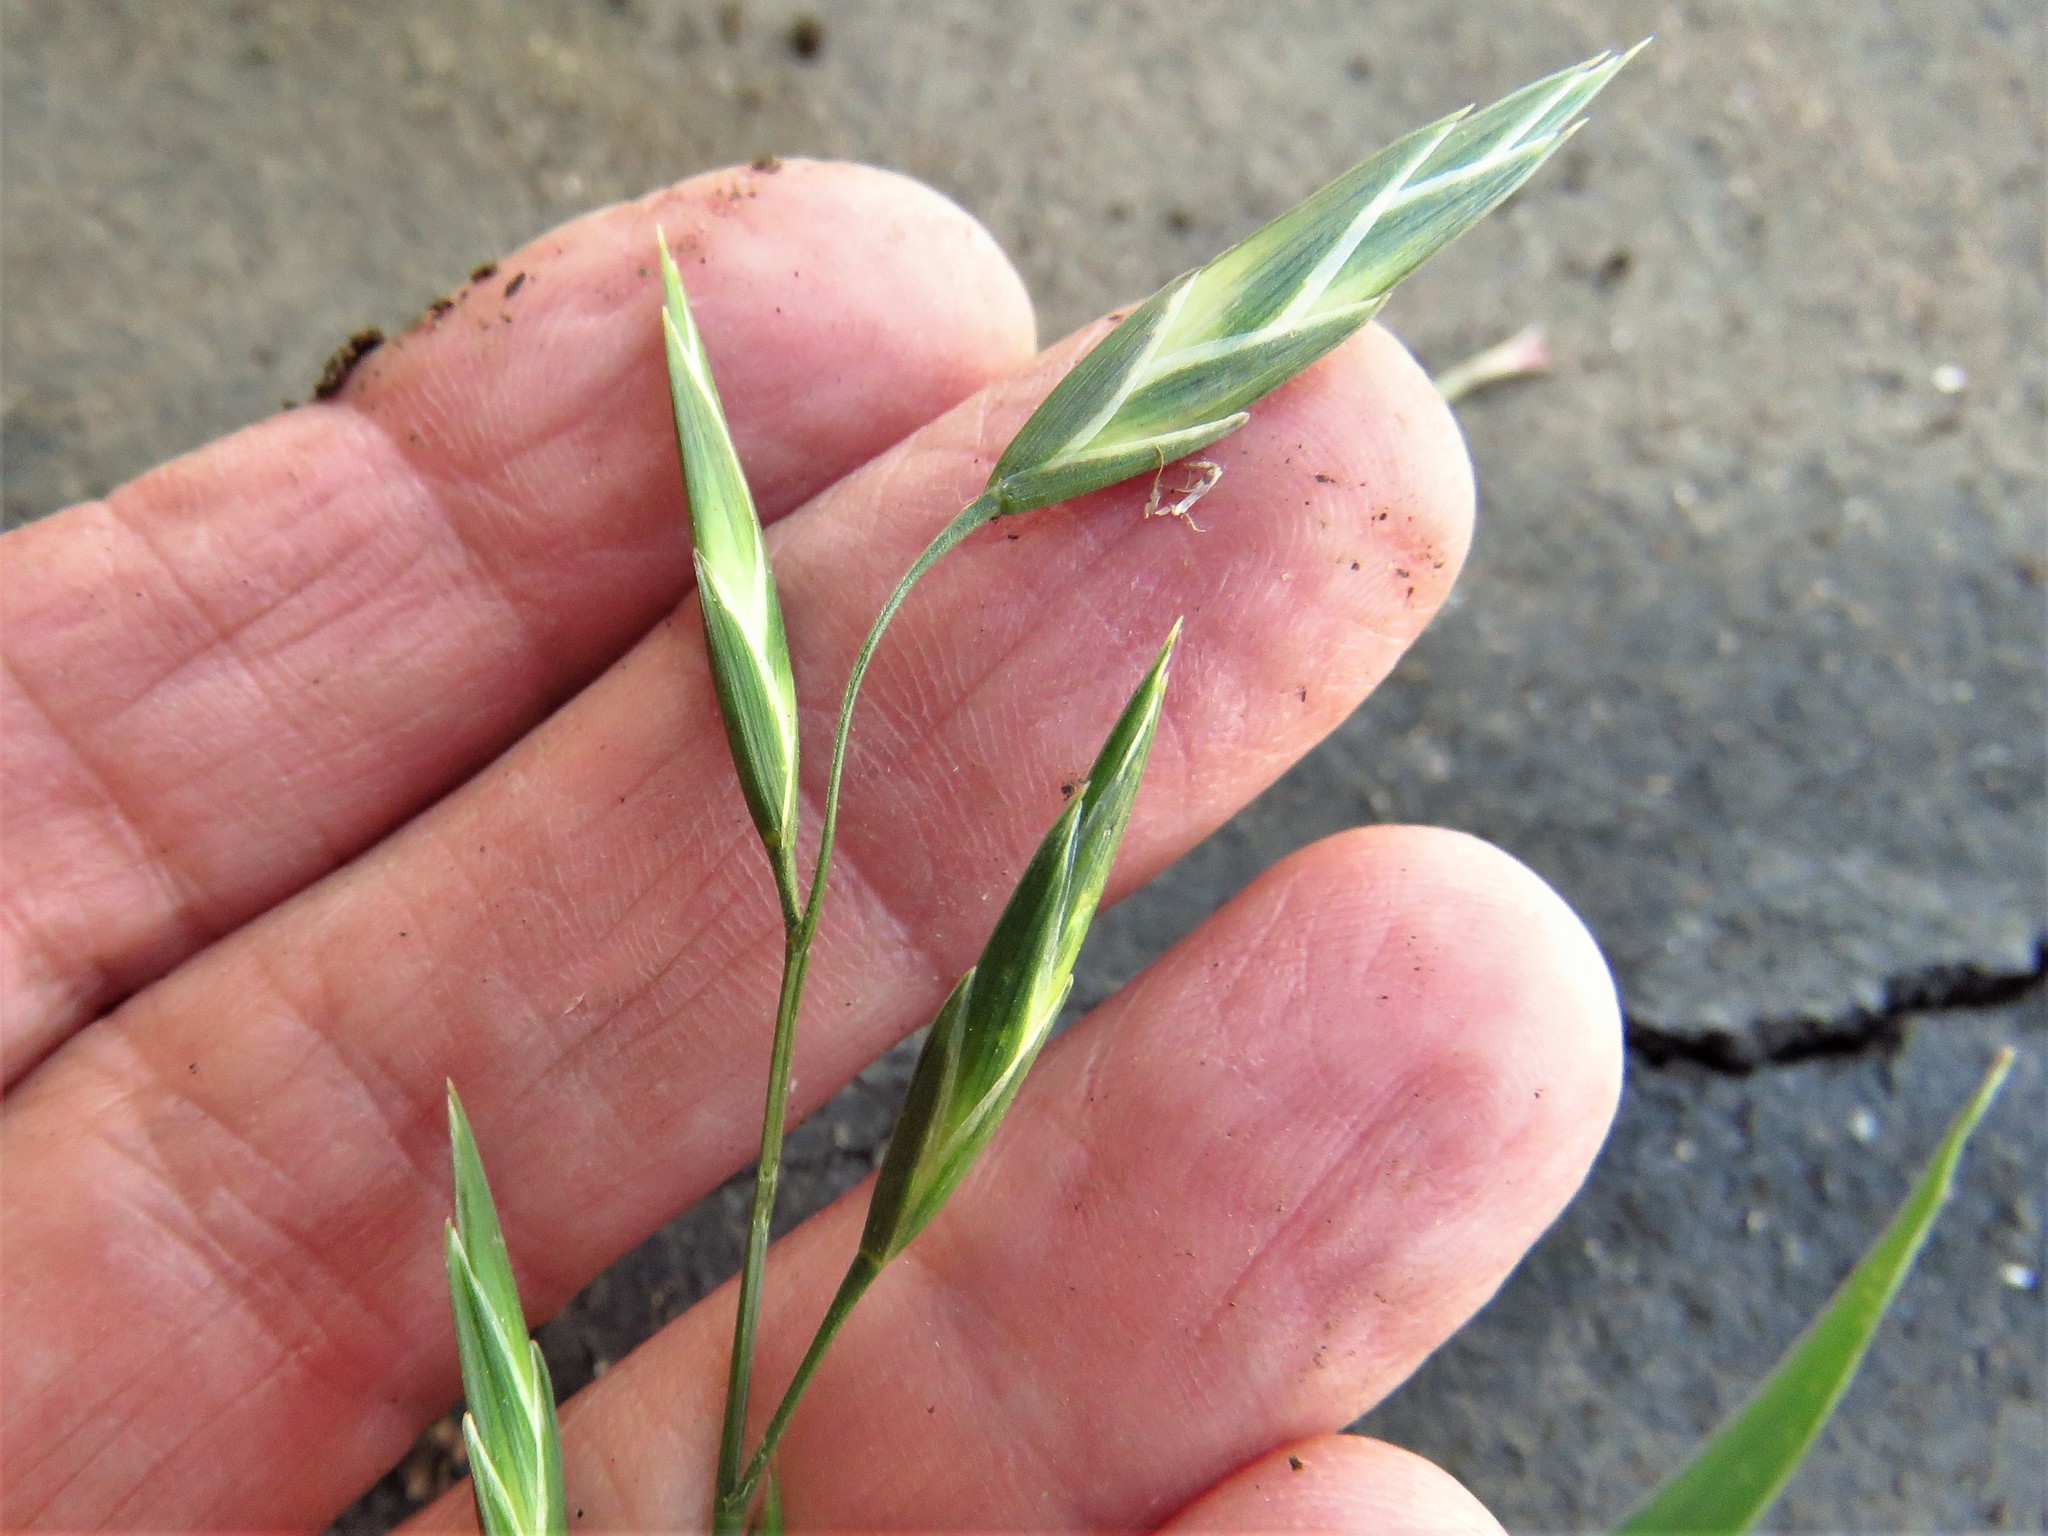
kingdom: Plantae
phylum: Tracheophyta
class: Liliopsida
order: Poales
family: Poaceae
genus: Bromus
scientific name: Bromus catharticus
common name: Rescuegrass
